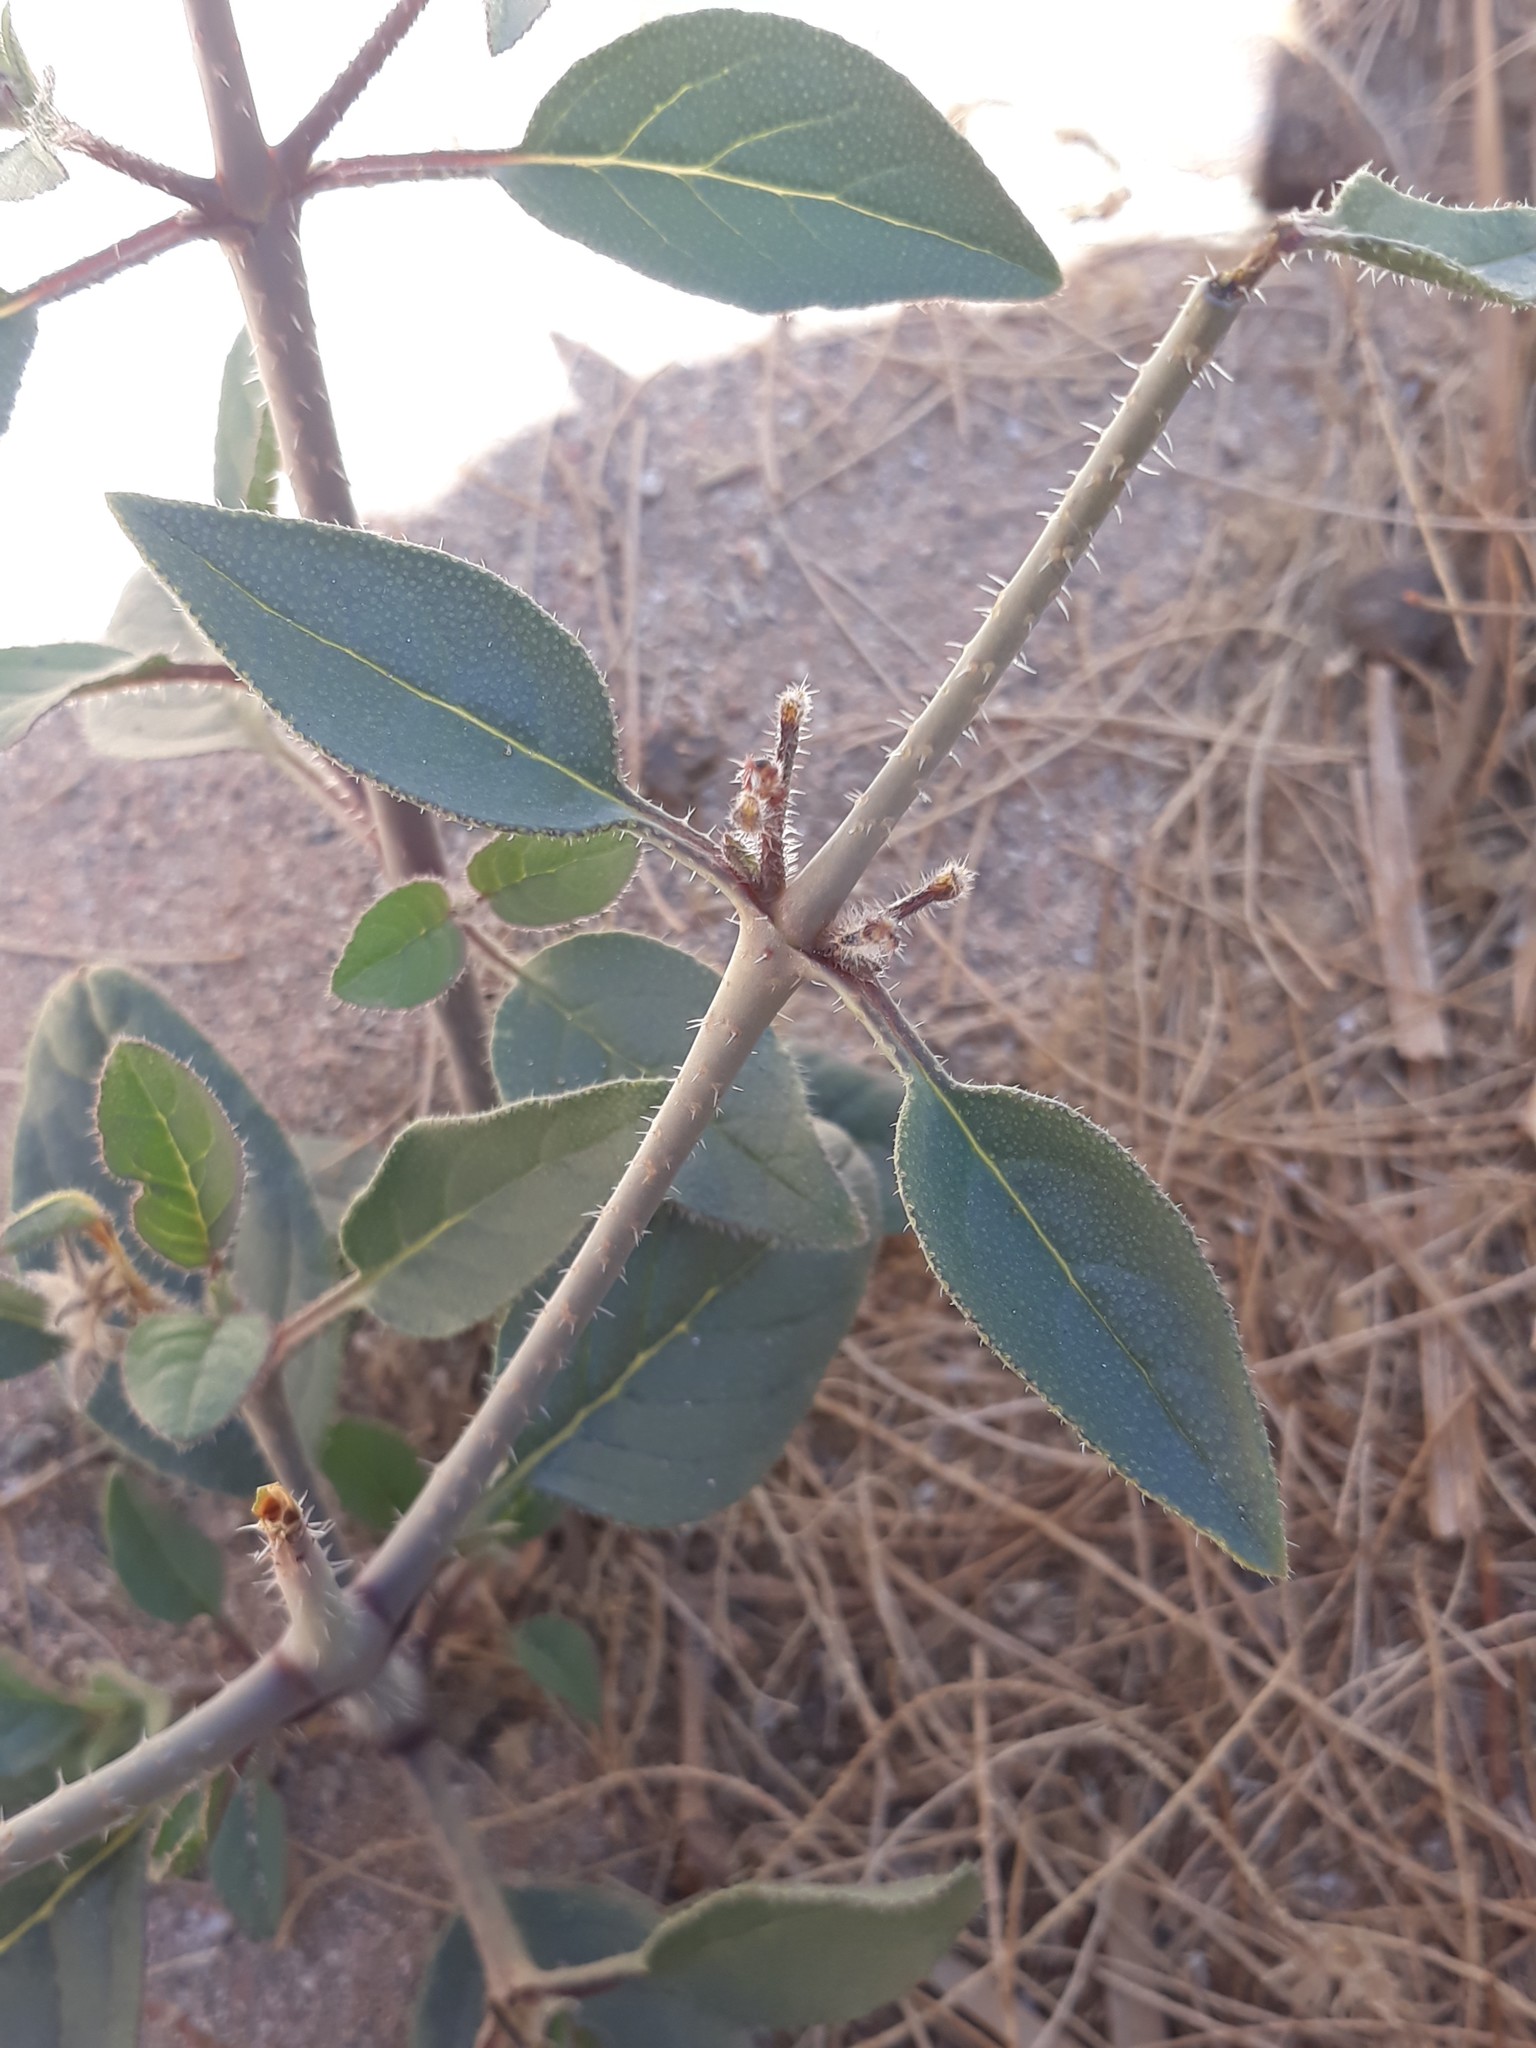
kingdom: Plantae
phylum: Tracheophyta
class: Magnoliopsida
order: Boraginales
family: Boraginaceae
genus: Trichodesma
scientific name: Trichodesma africanum
